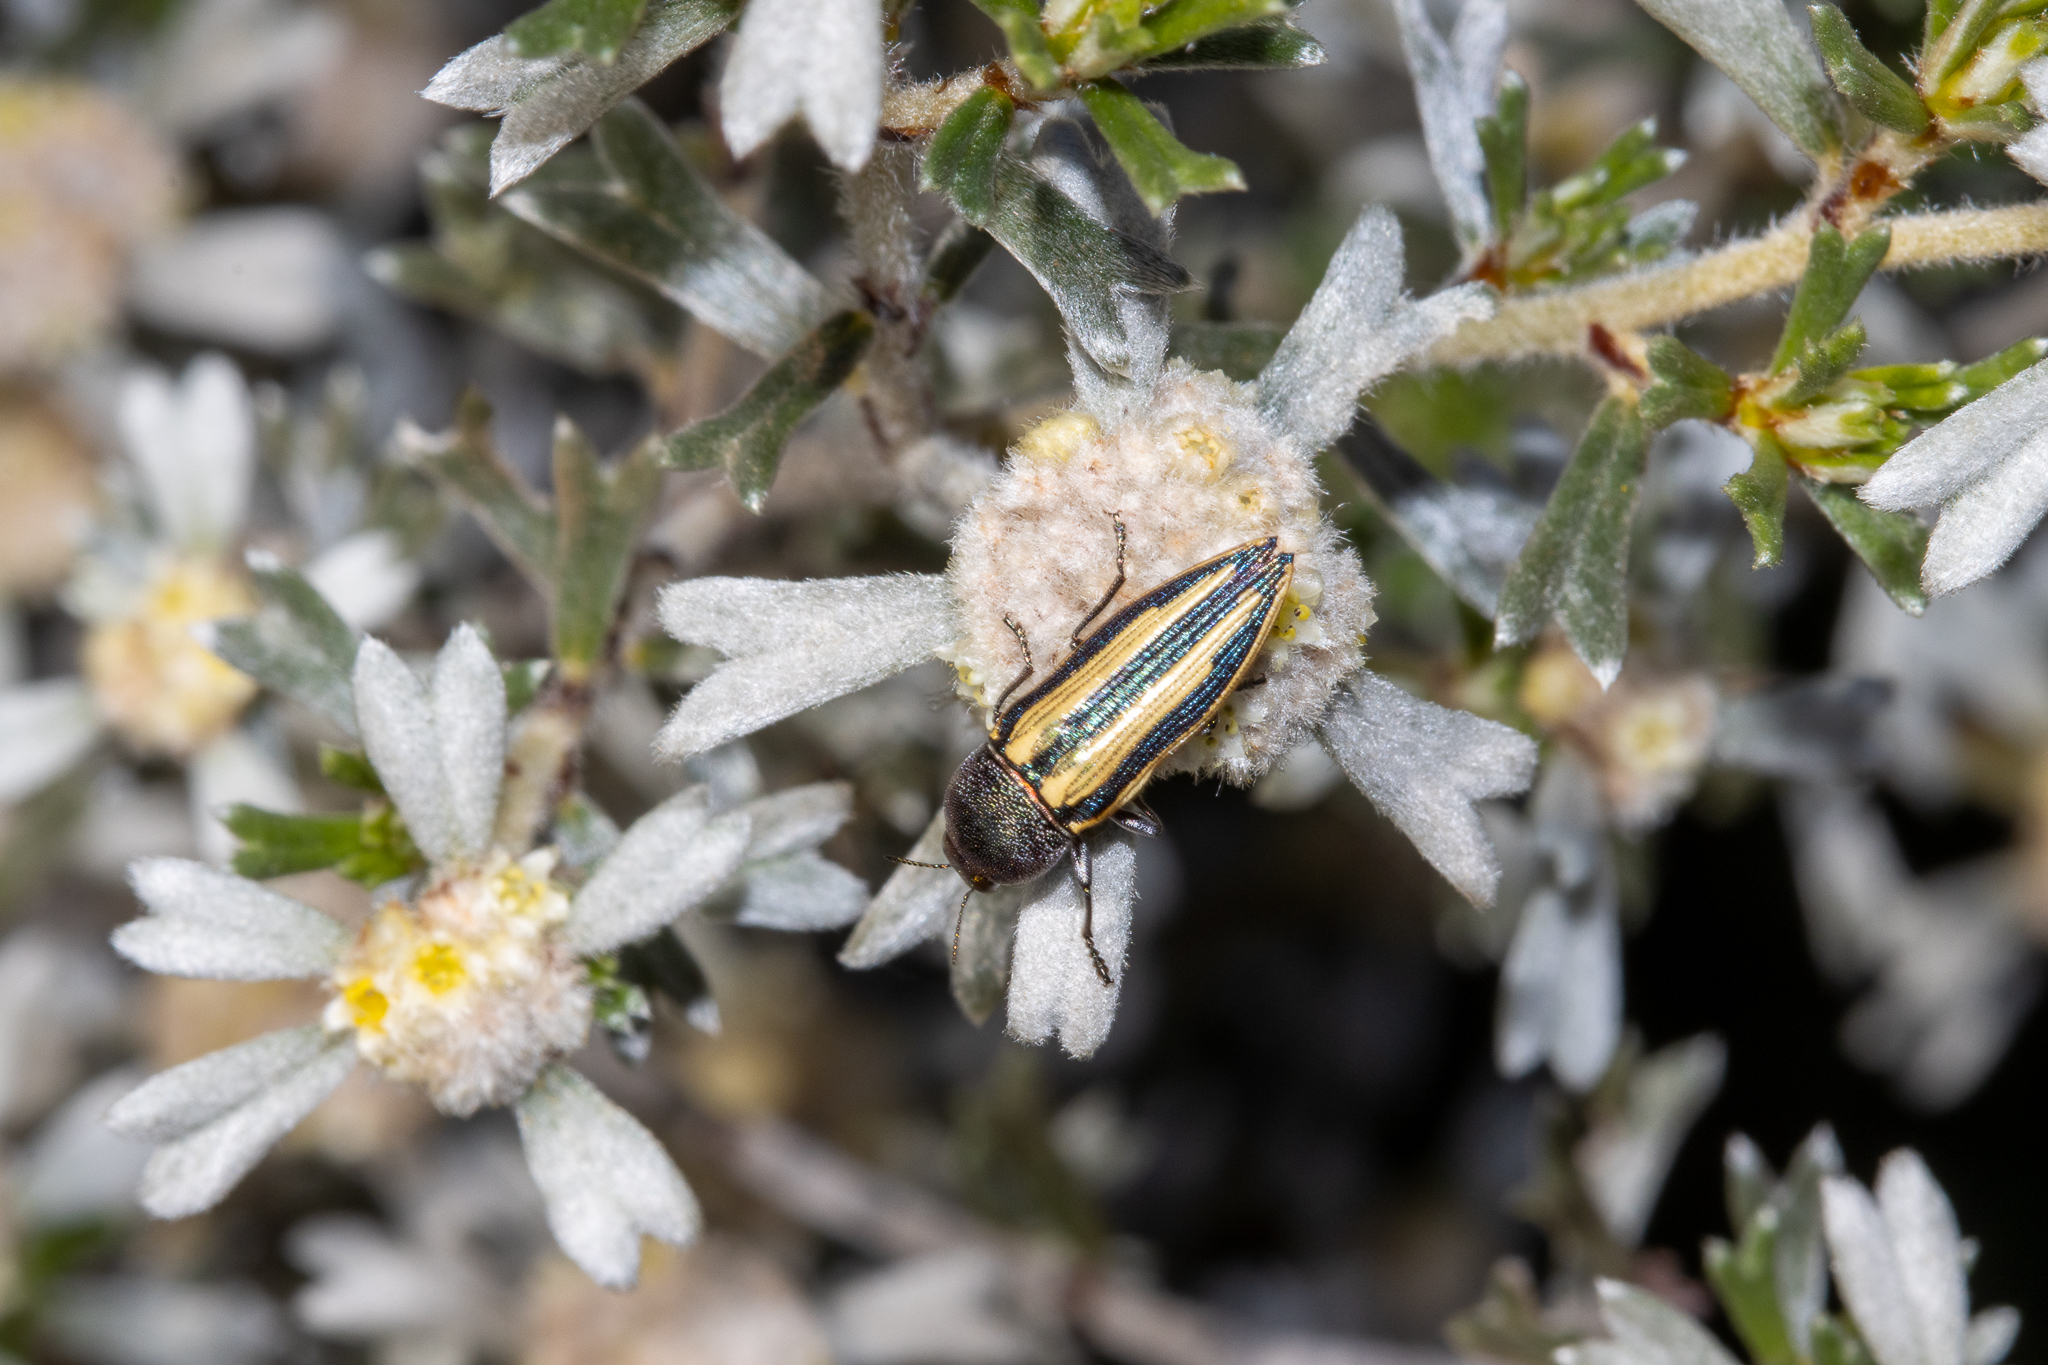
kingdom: Animalia
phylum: Arthropoda
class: Insecta
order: Coleoptera
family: Buprestidae
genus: Castiarina
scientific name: Castiarina vittata
